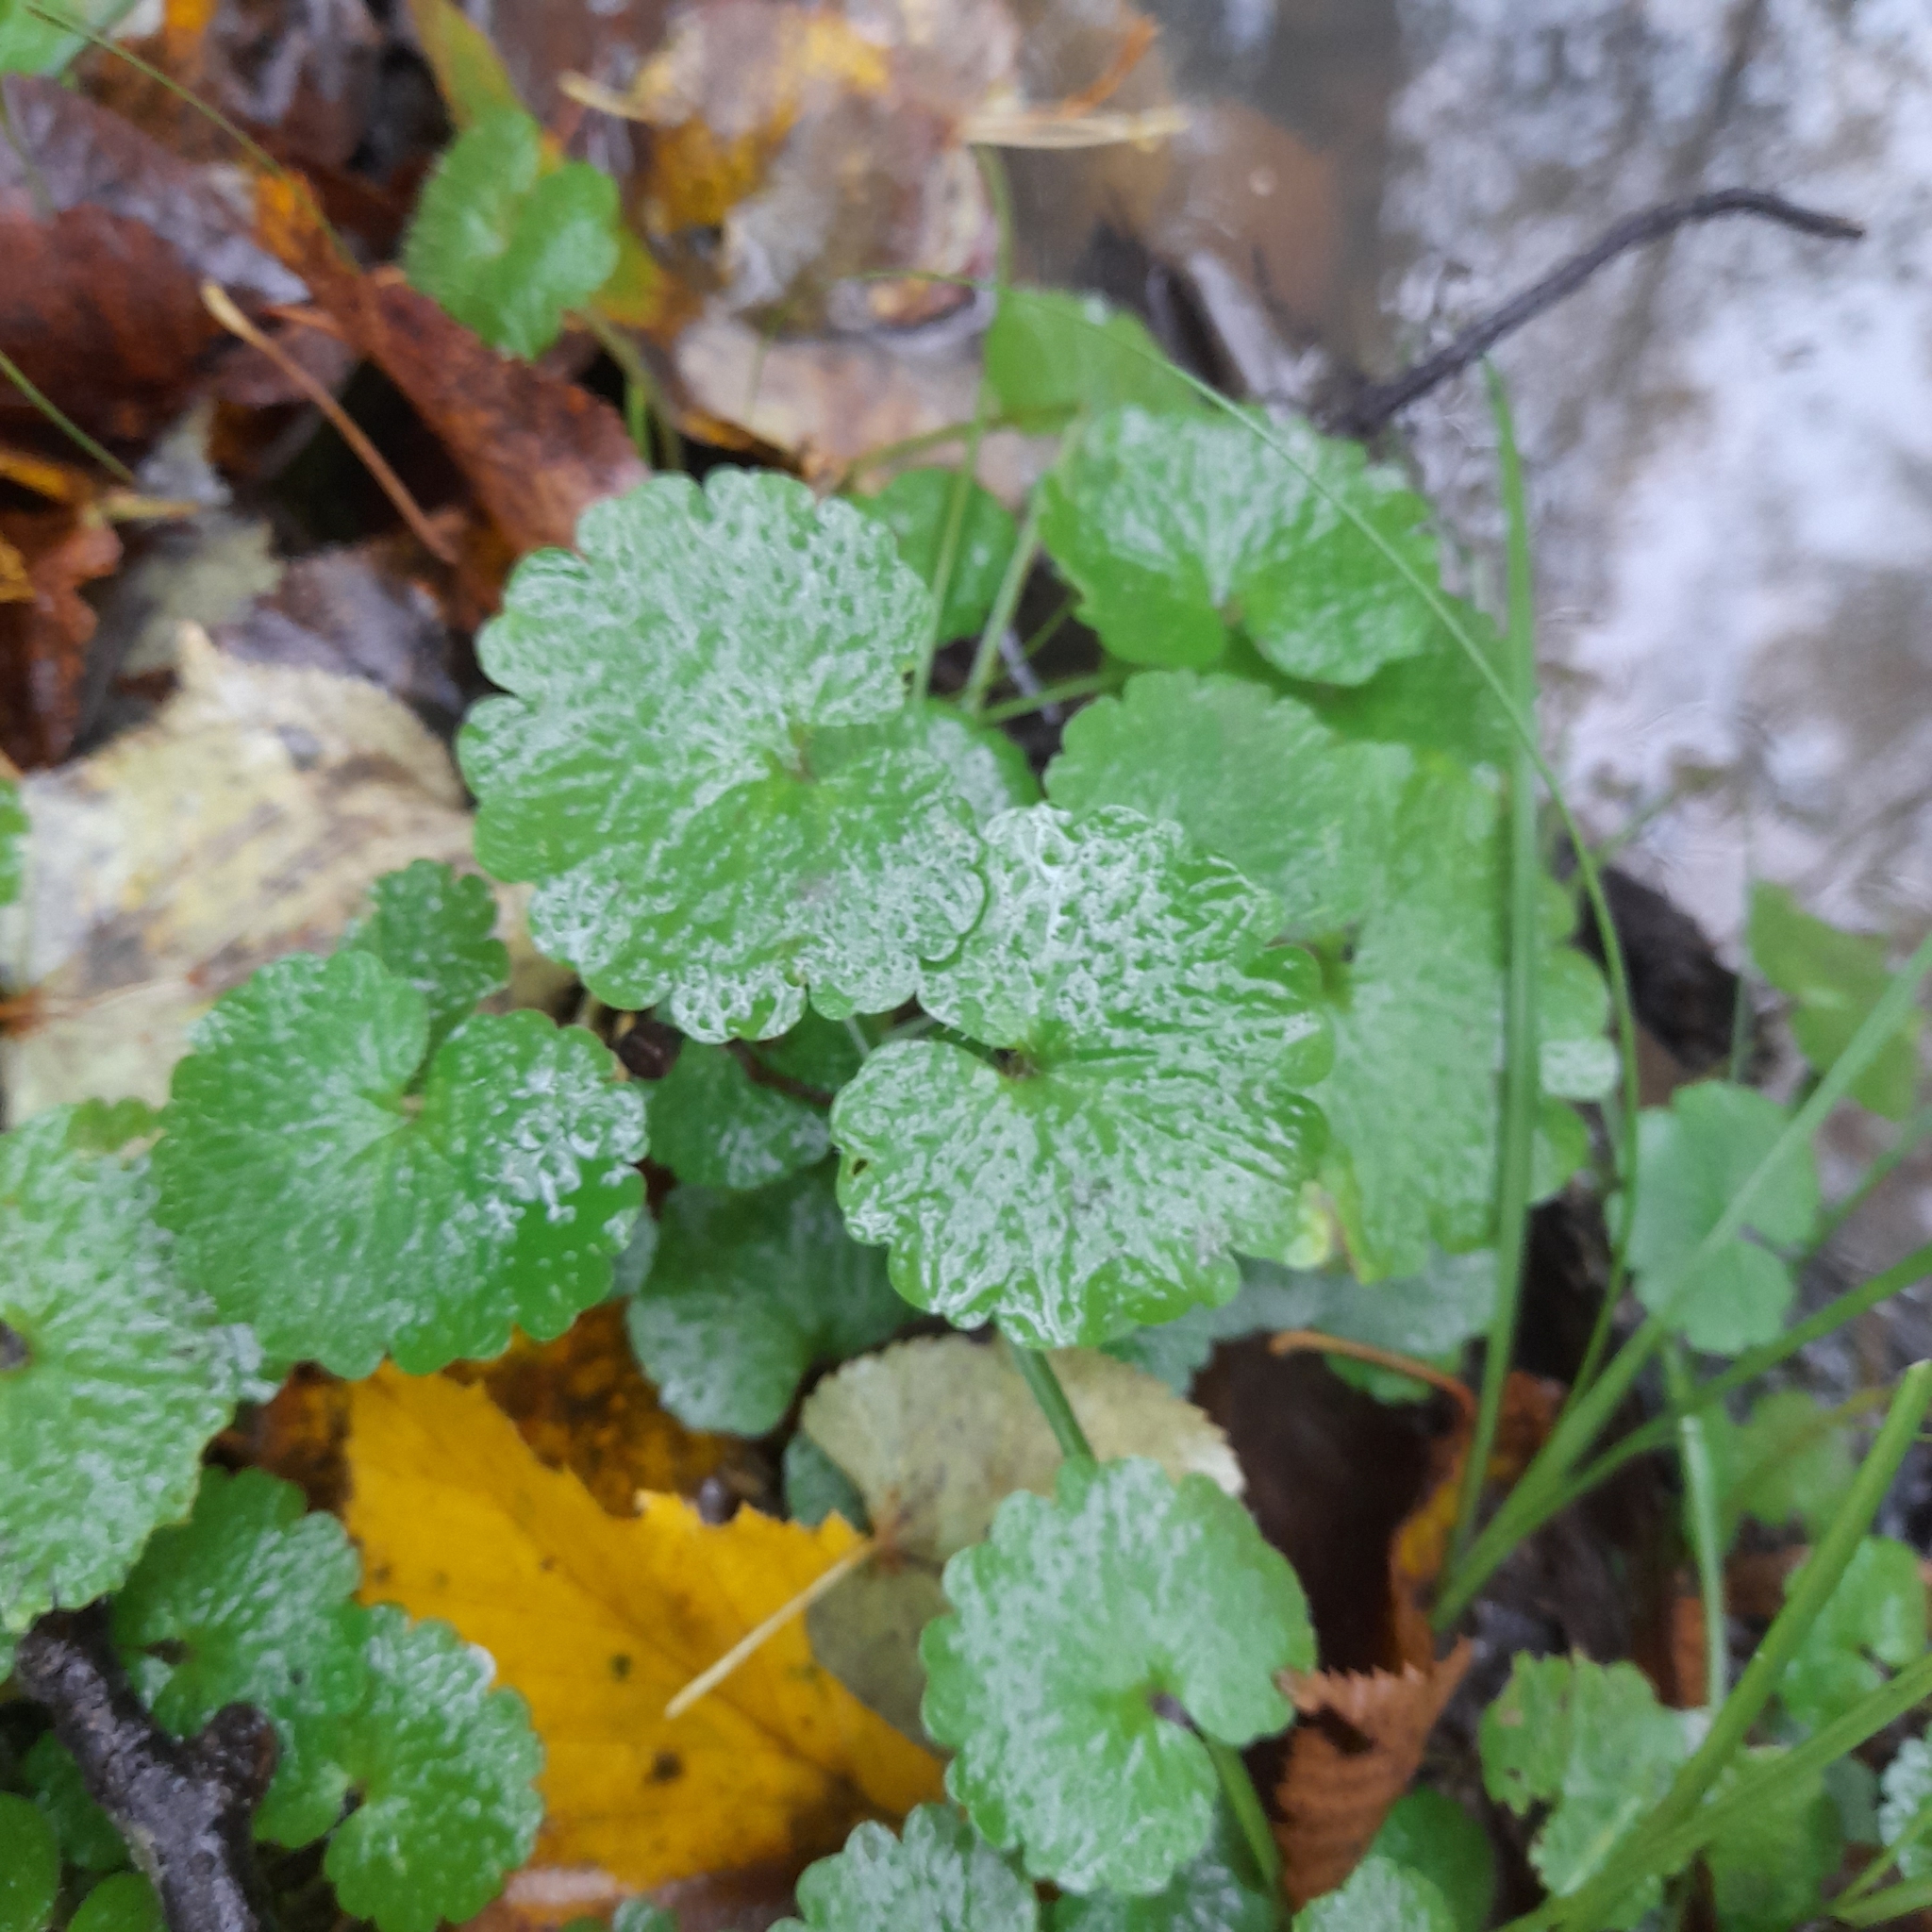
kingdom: Plantae
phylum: Tracheophyta
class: Magnoliopsida
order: Saxifragales
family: Saxifragaceae
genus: Chrysosplenium
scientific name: Chrysosplenium alternifolium
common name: Alternate-leaved golden-saxifrage
